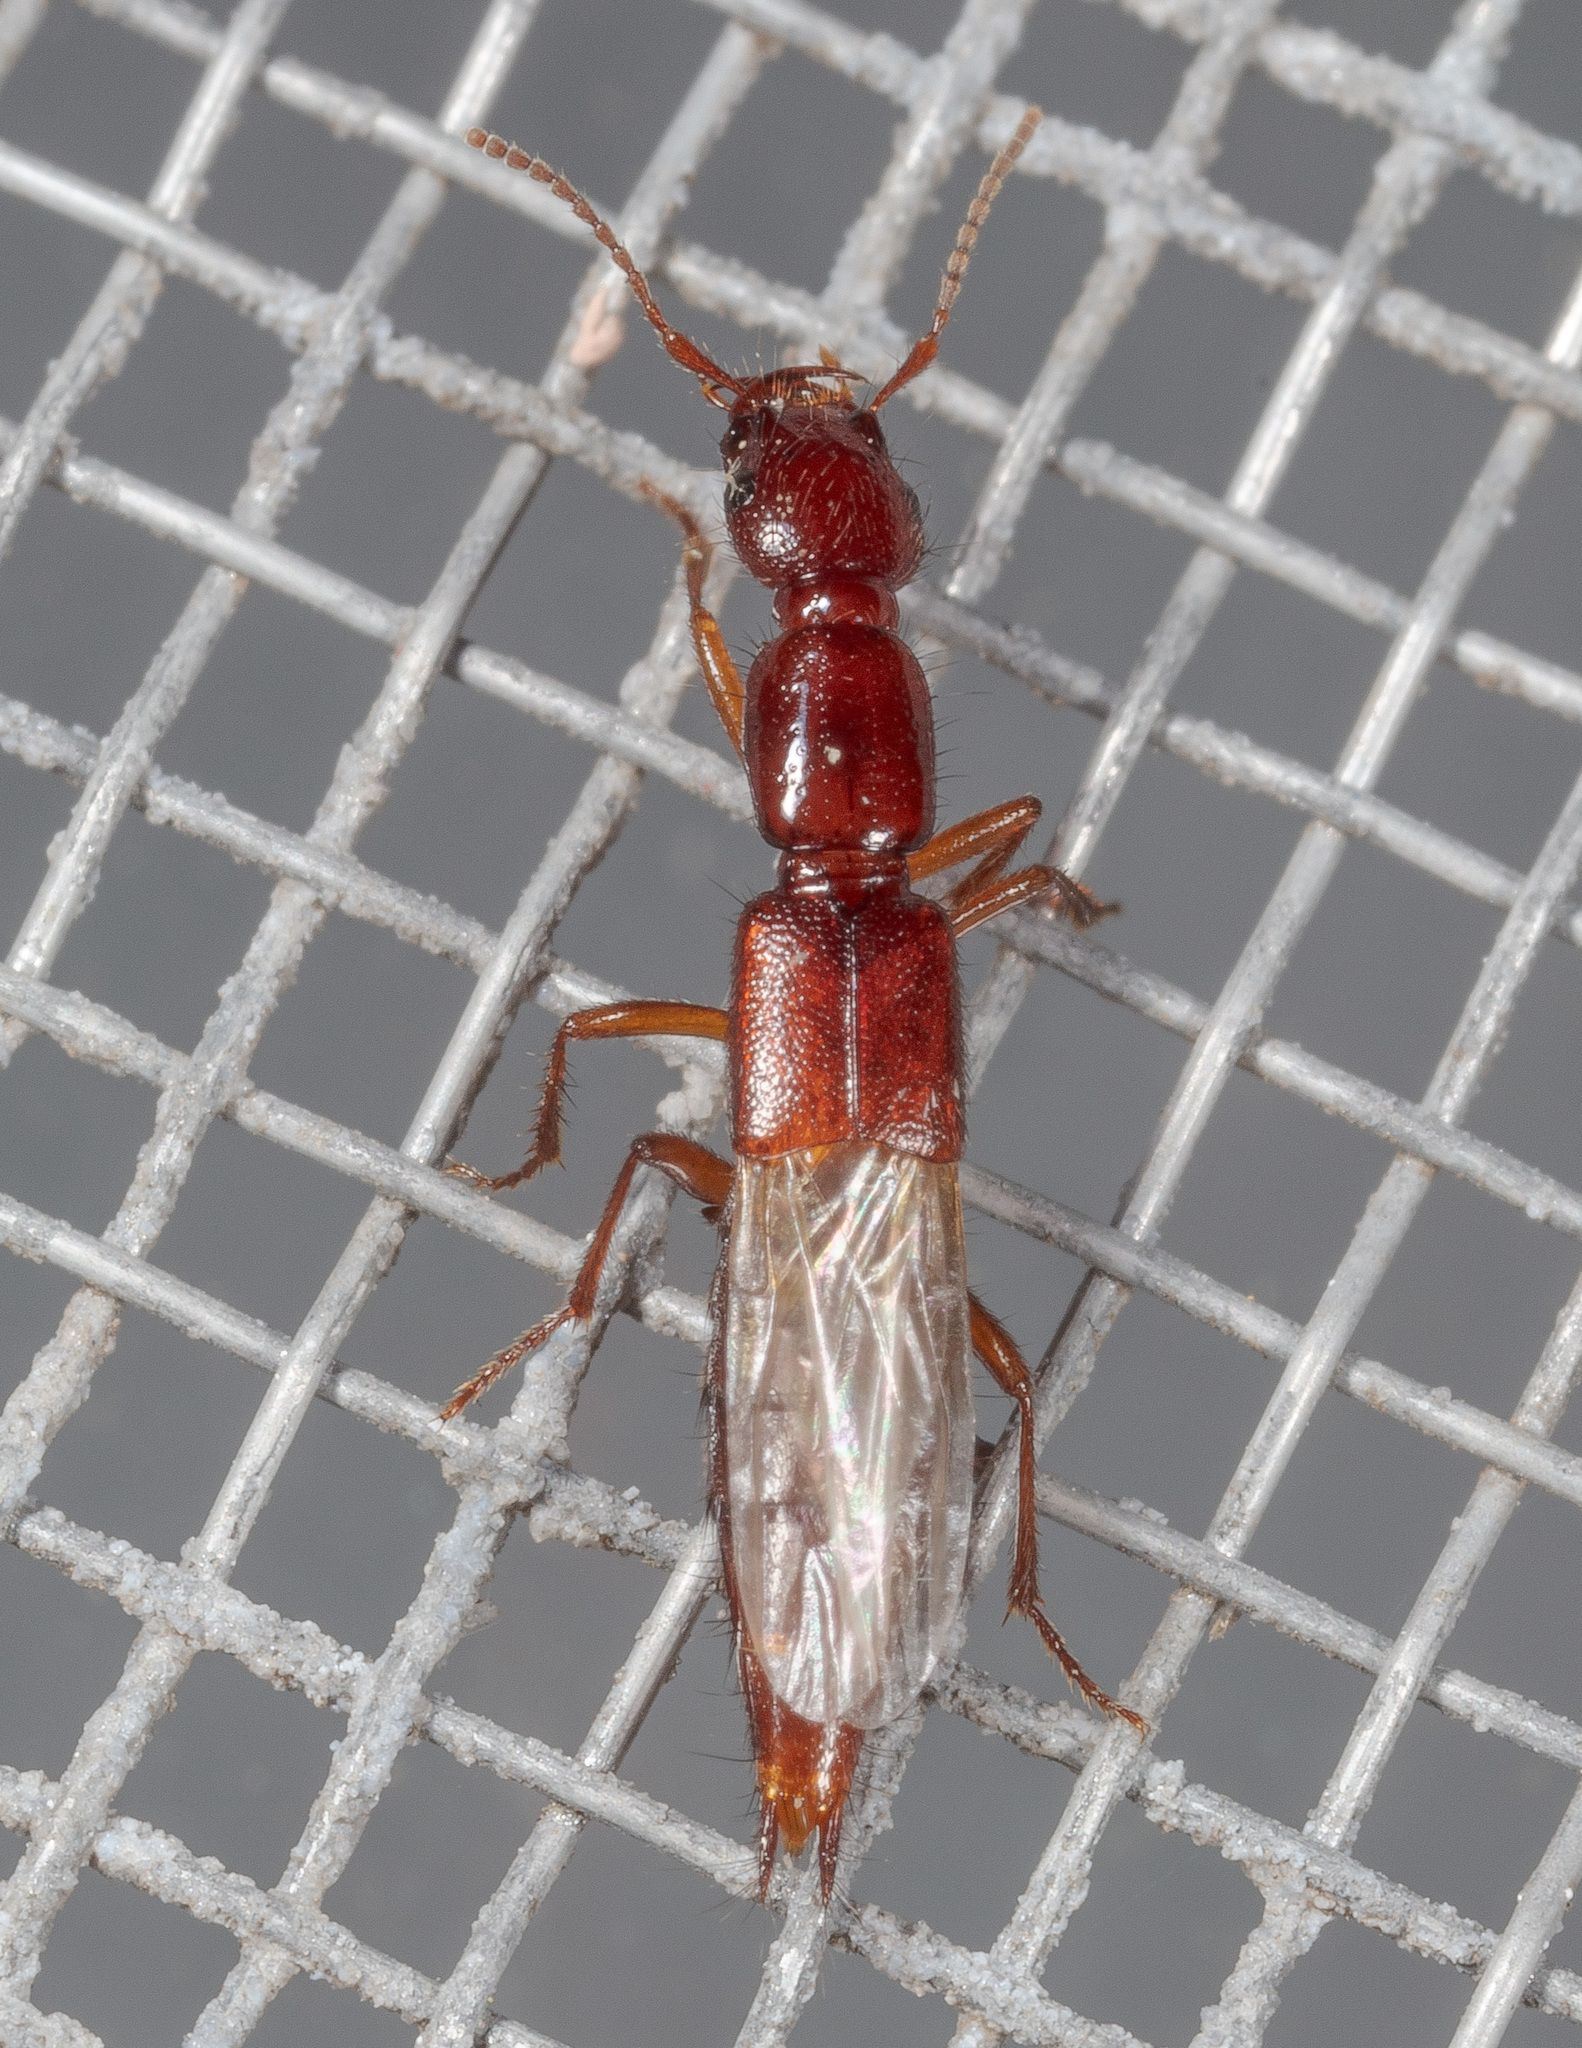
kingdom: Animalia
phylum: Arthropoda
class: Insecta
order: Coleoptera
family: Staphylinidae
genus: Biocrypta
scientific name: Biocrypta prospiciens
